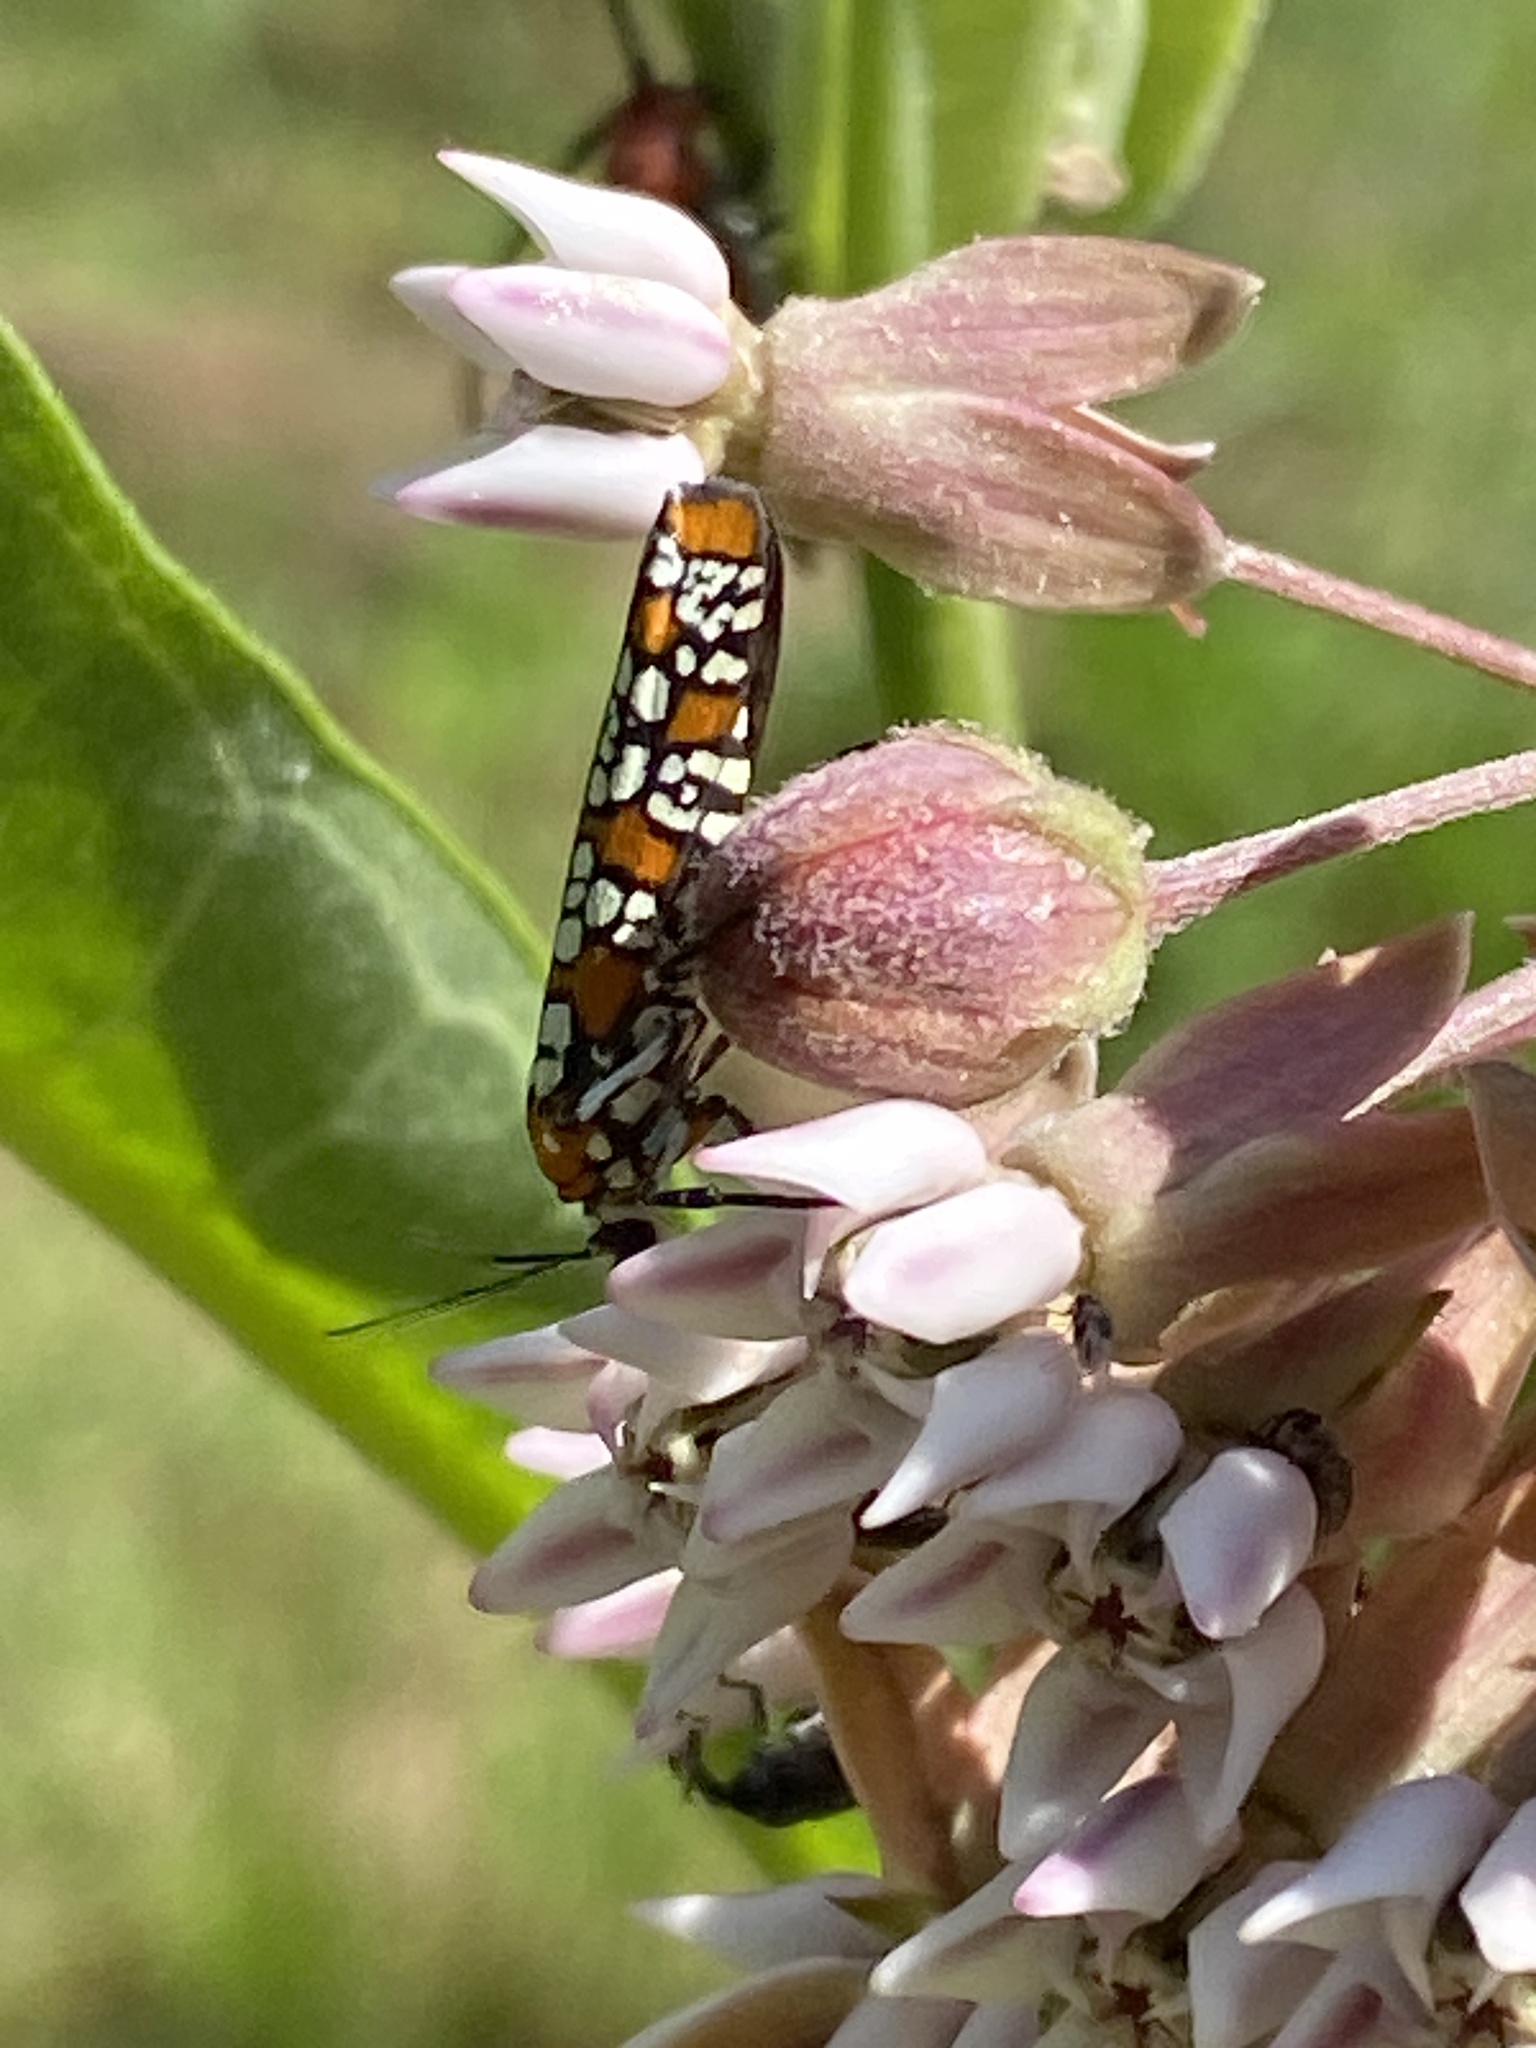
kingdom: Animalia
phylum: Arthropoda
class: Insecta
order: Lepidoptera
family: Attevidae
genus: Atteva
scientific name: Atteva punctella
